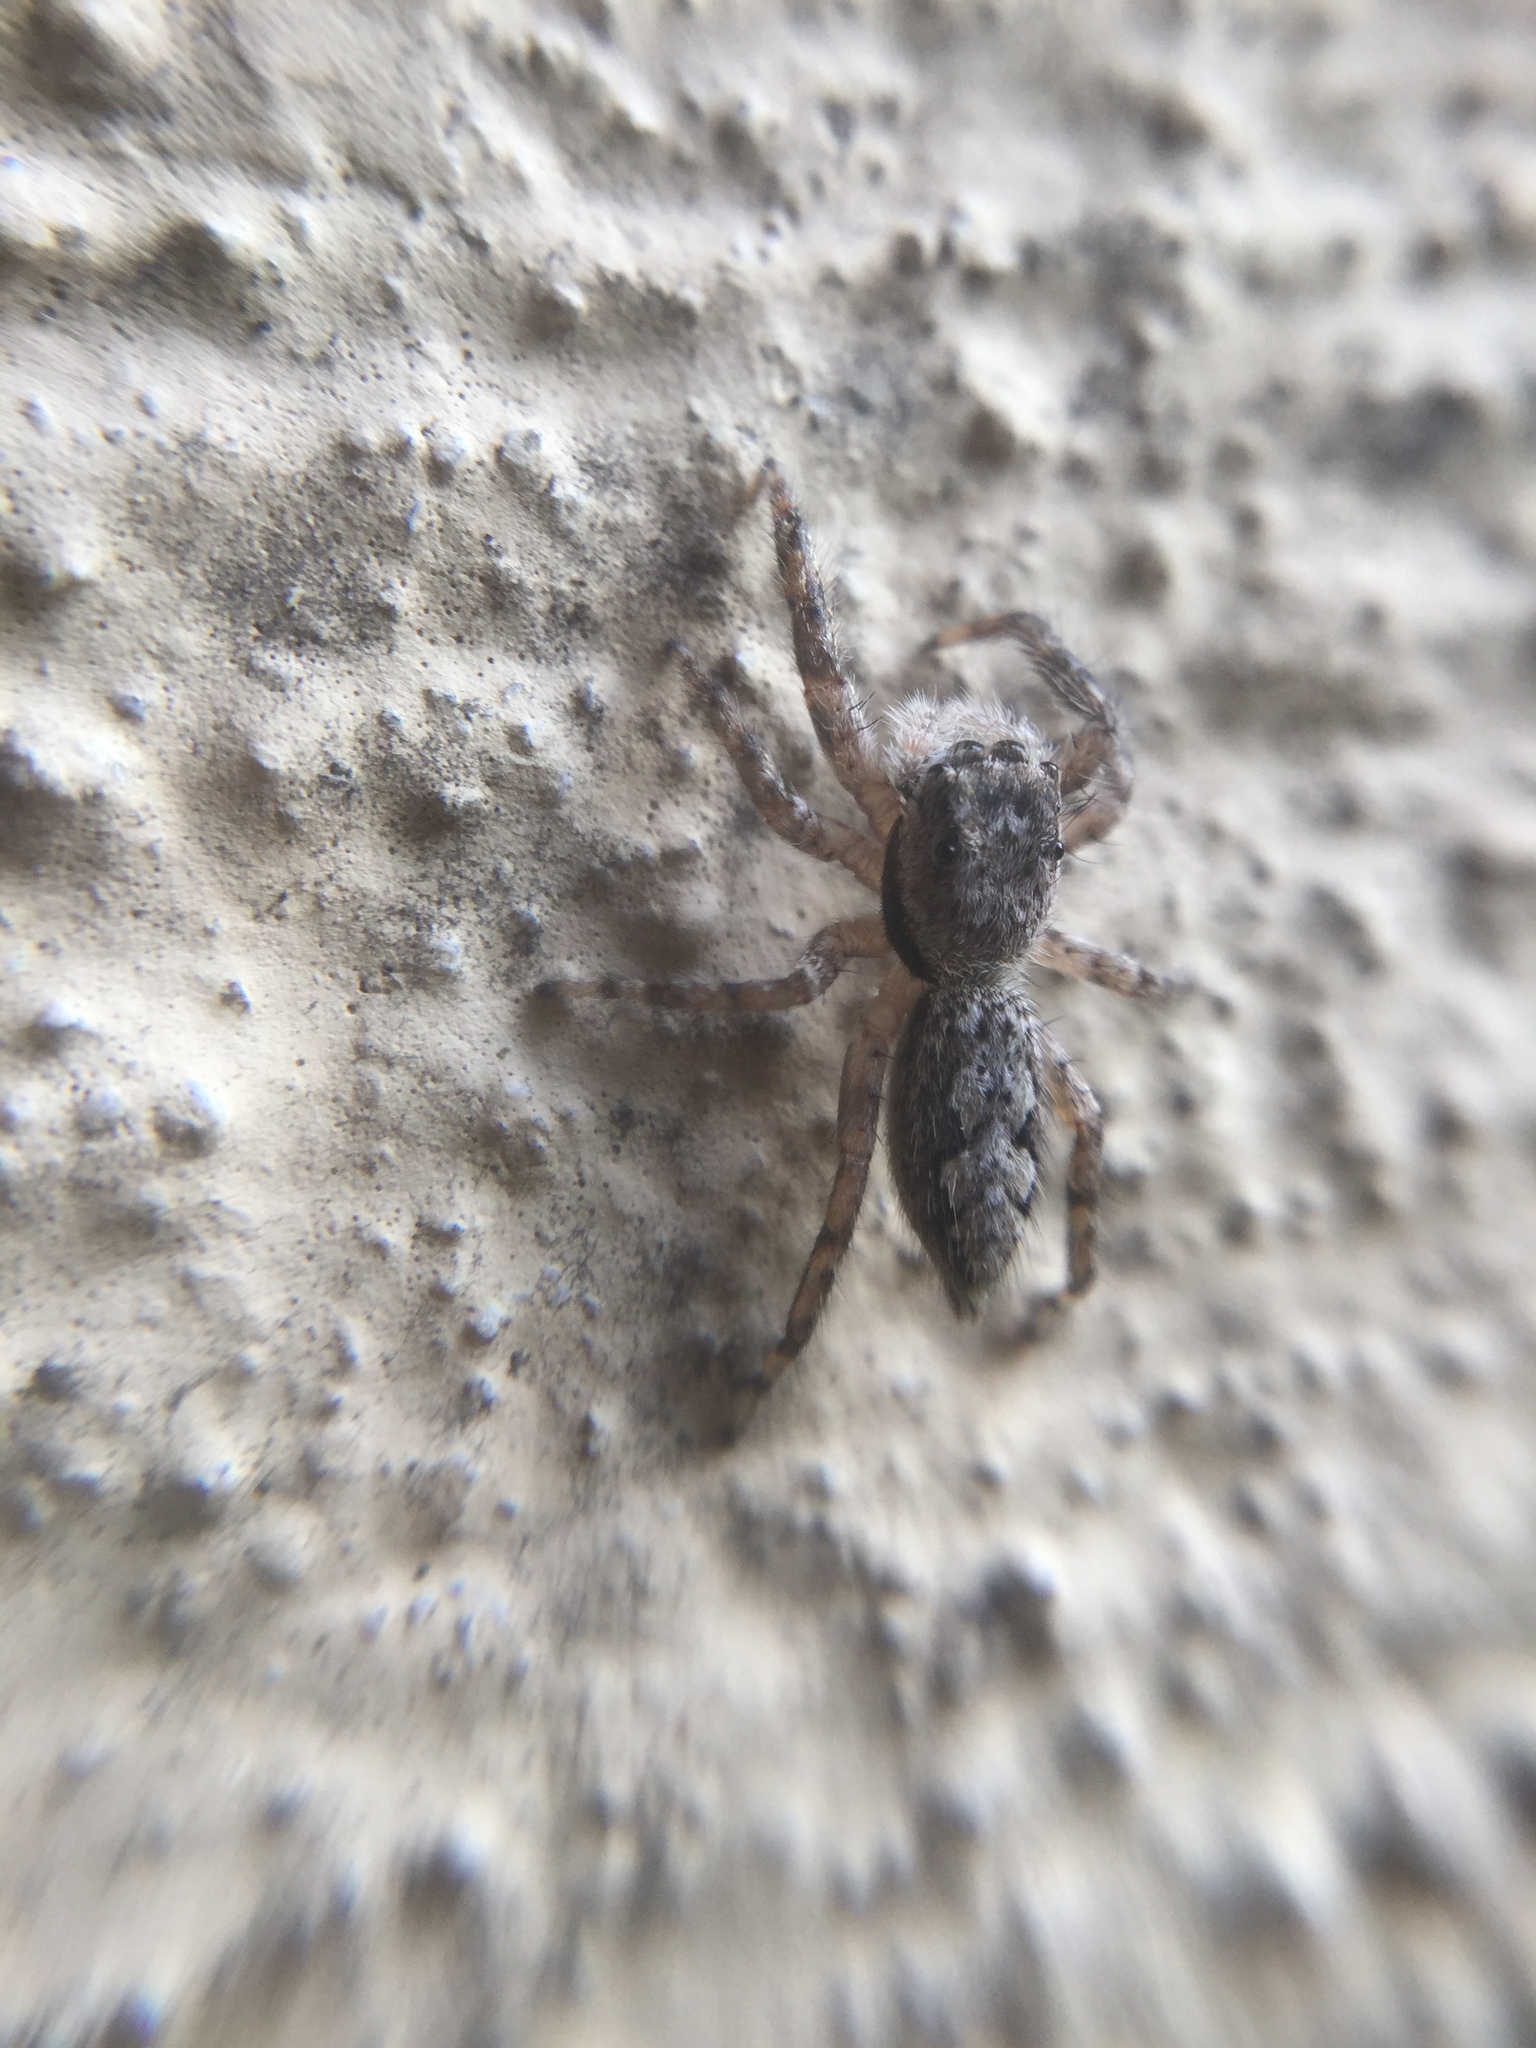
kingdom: Animalia
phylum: Arthropoda
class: Arachnida
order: Araneae
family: Salticidae
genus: Platycryptus
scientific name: Platycryptus undatus
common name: Tan jumping spider
